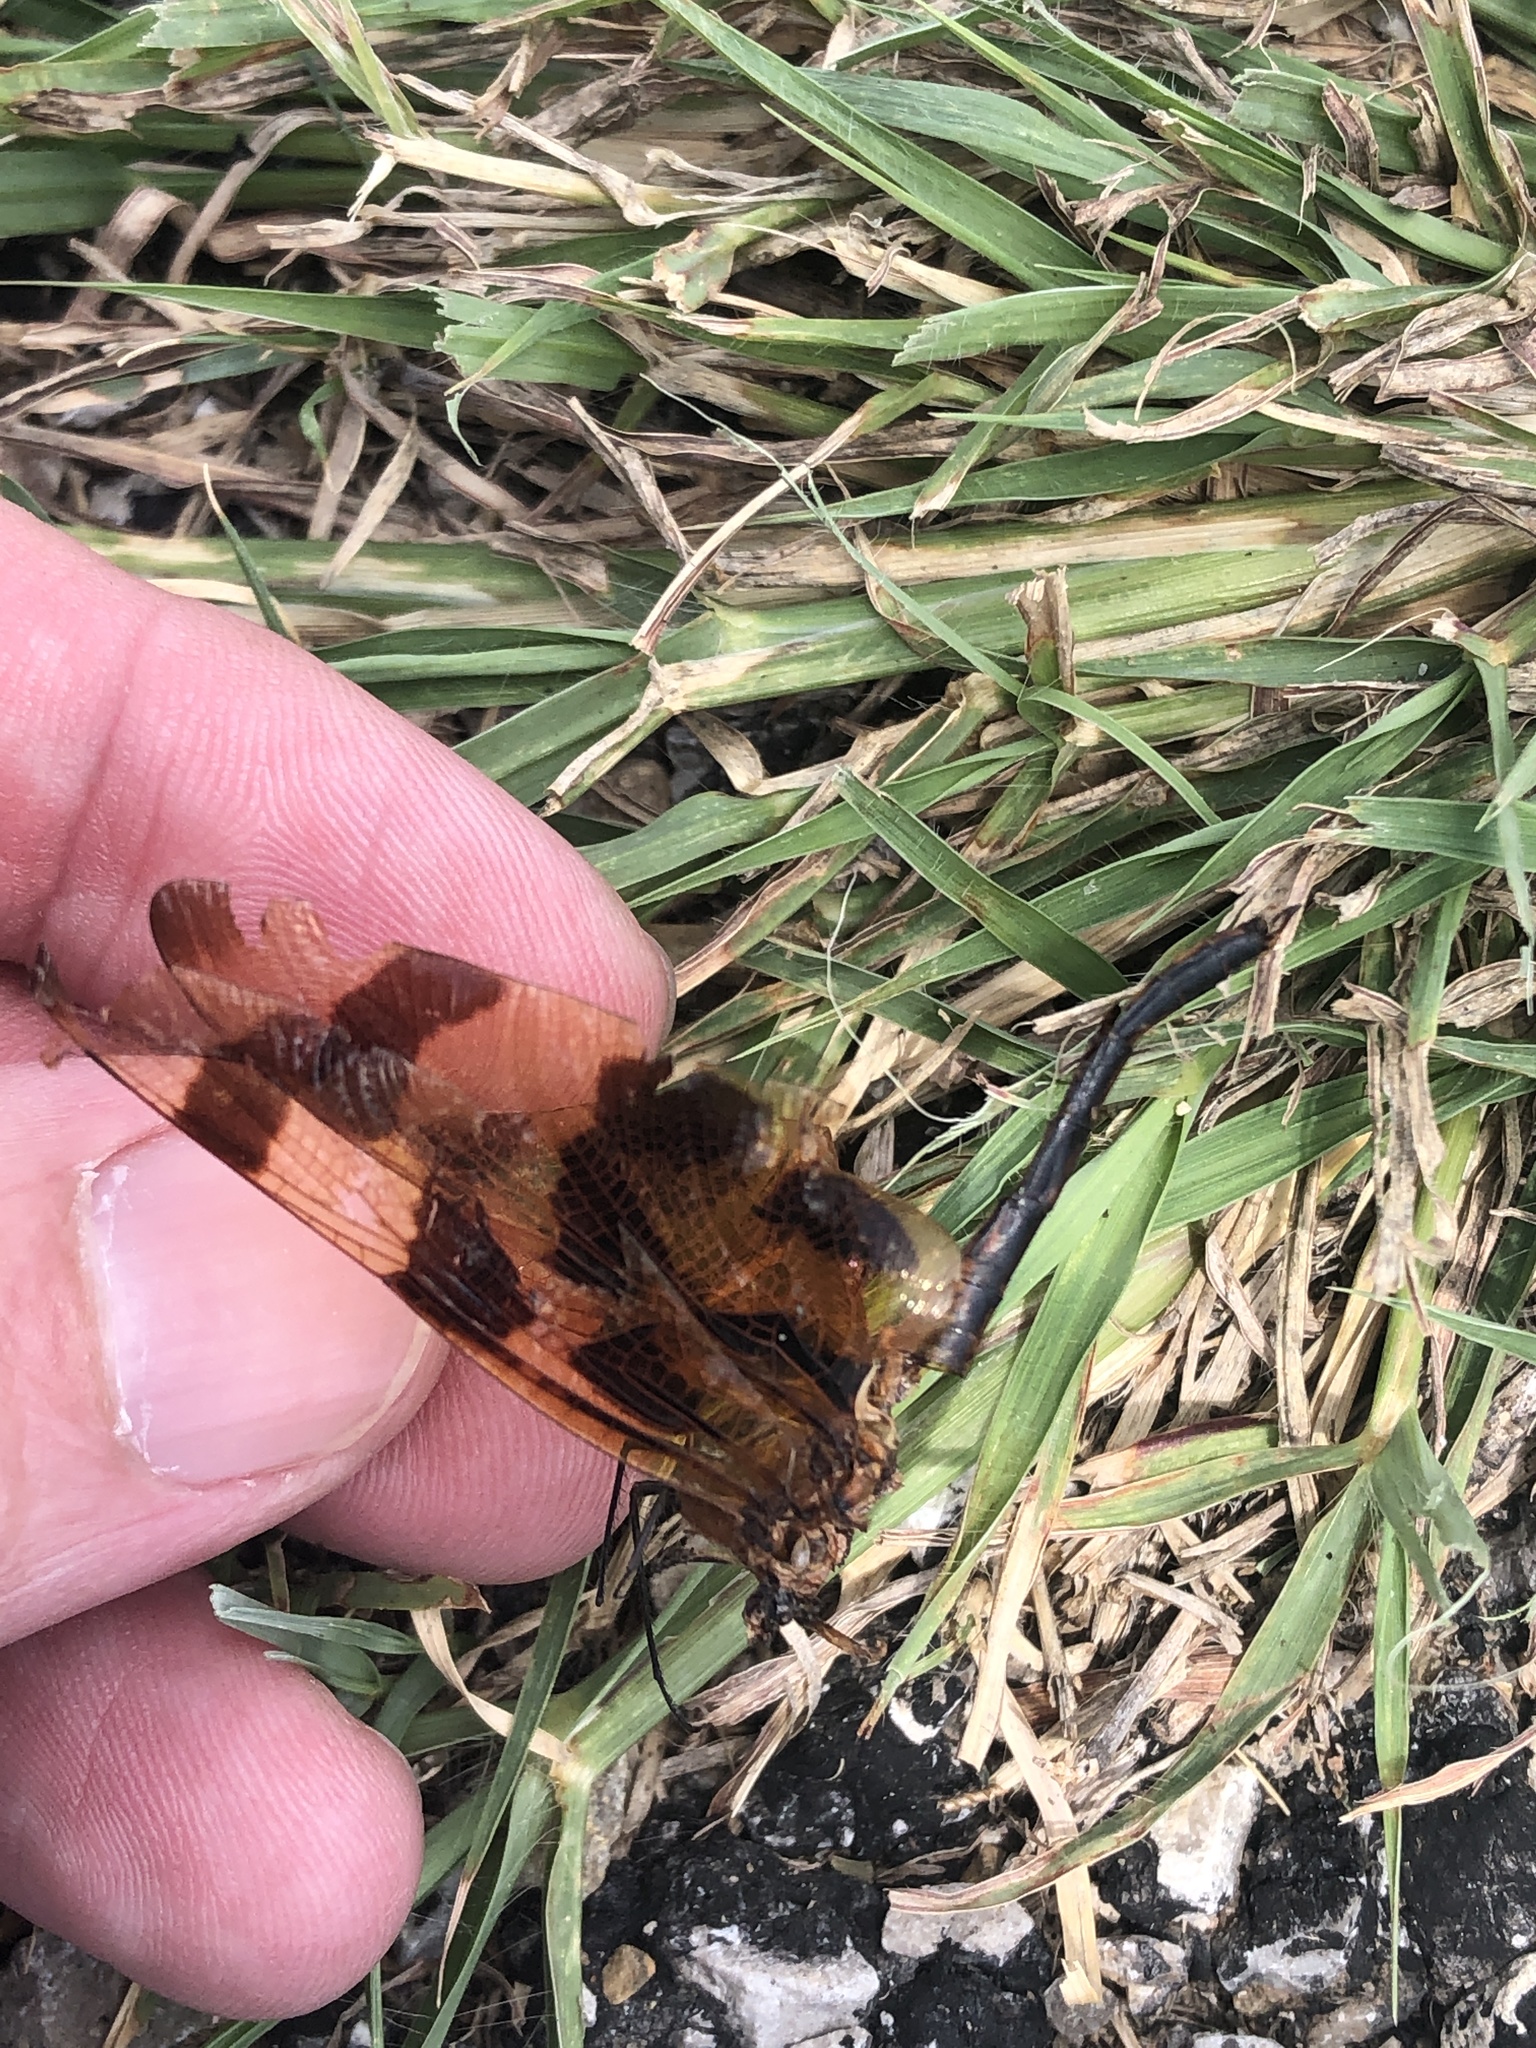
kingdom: Animalia
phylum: Arthropoda
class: Insecta
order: Odonata
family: Libellulidae
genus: Celithemis
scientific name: Celithemis eponina
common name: Halloween pennant
